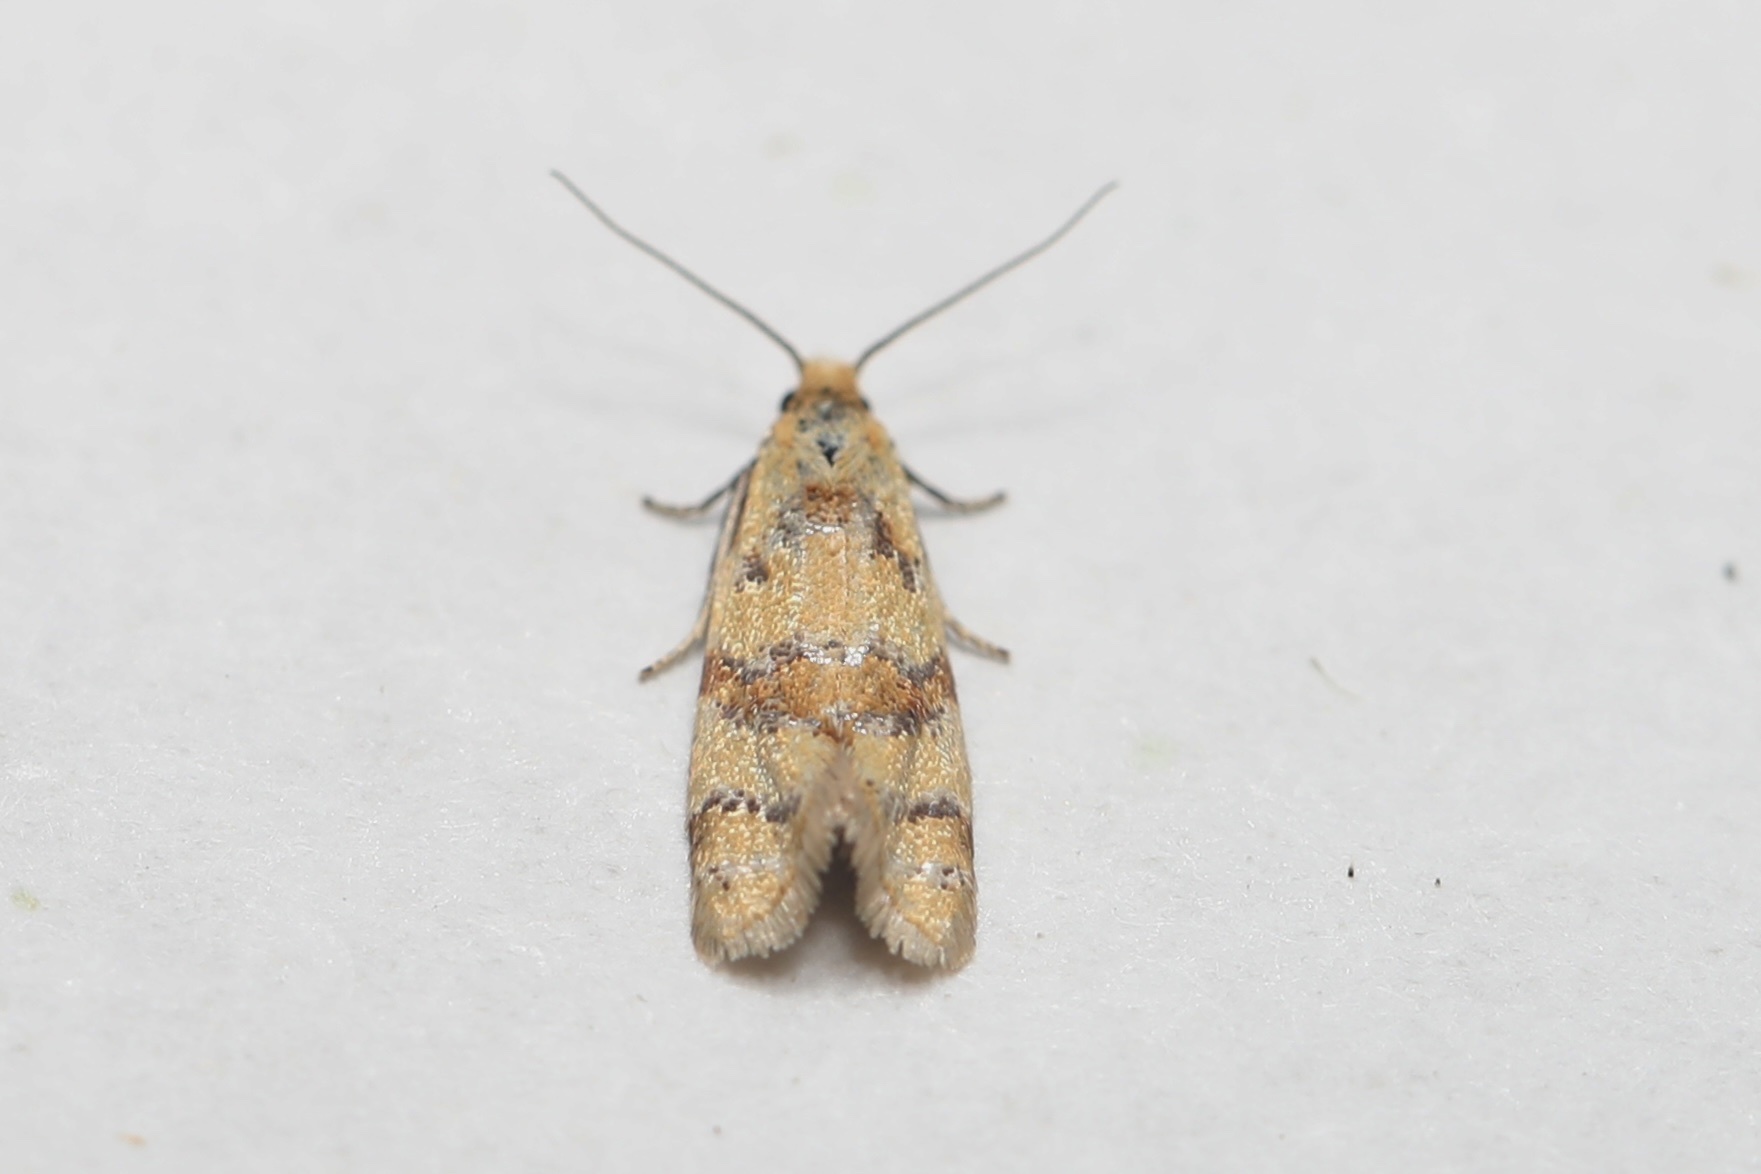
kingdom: Animalia
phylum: Arthropoda
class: Insecta
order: Lepidoptera
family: Tortricidae
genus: Phtheochroa
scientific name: Phtheochroa vitellinana
